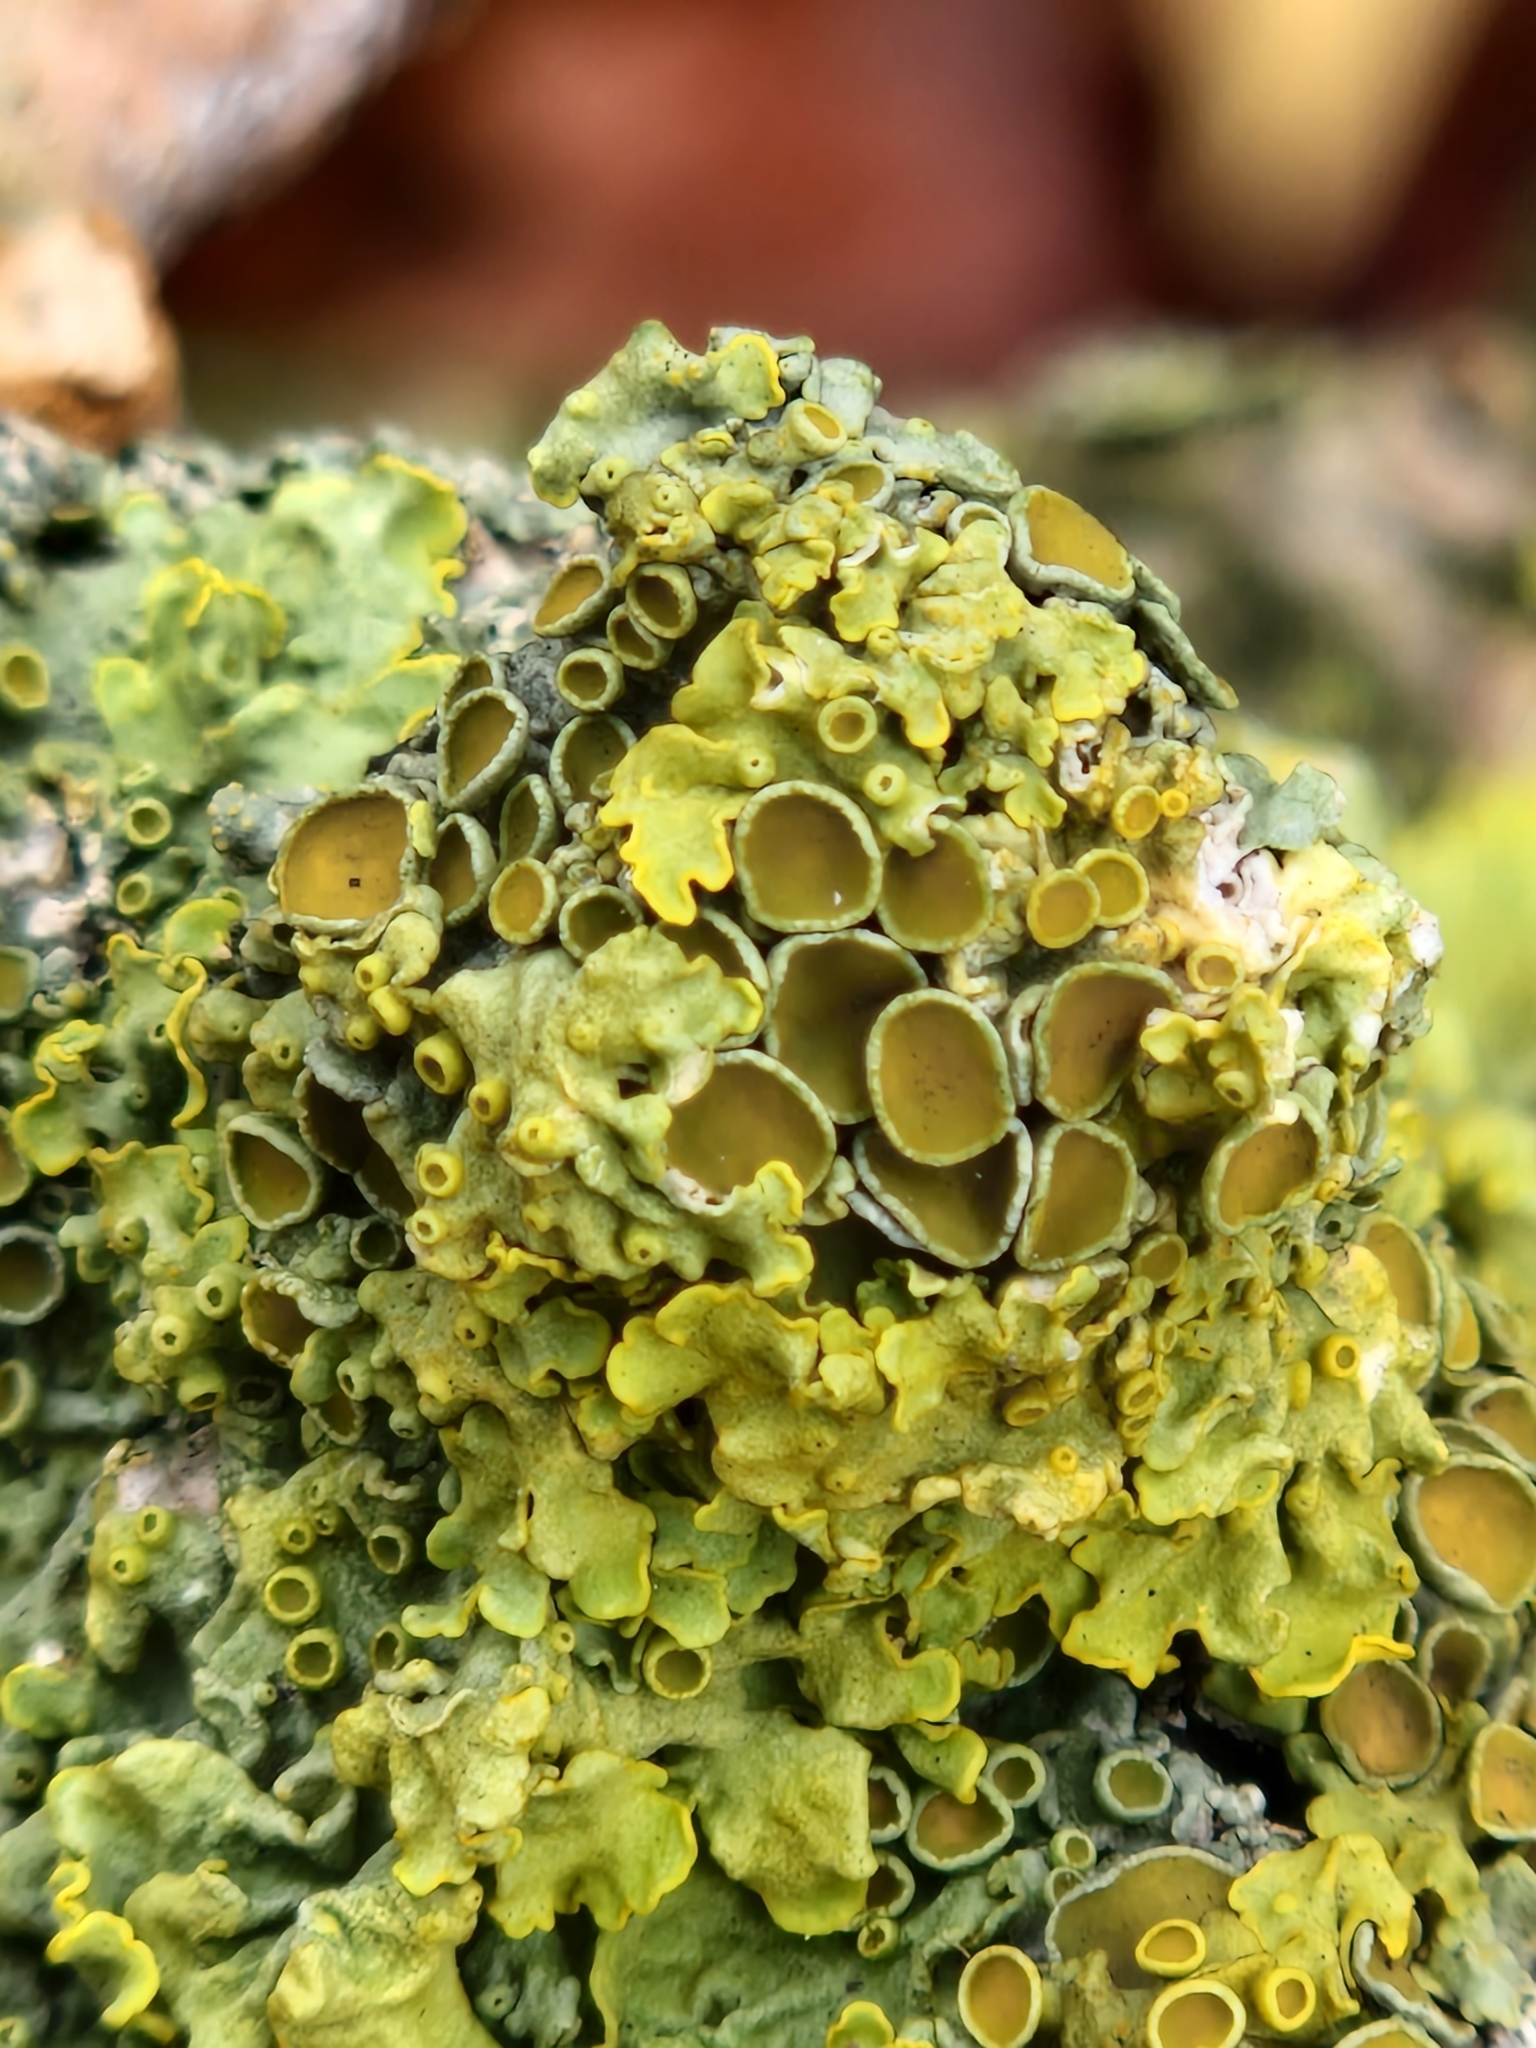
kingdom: Fungi
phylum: Ascomycota
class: Lecanoromycetes
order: Teloschistales
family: Teloschistaceae
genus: Xanthoria
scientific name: Xanthoria parietina
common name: Common orange lichen
